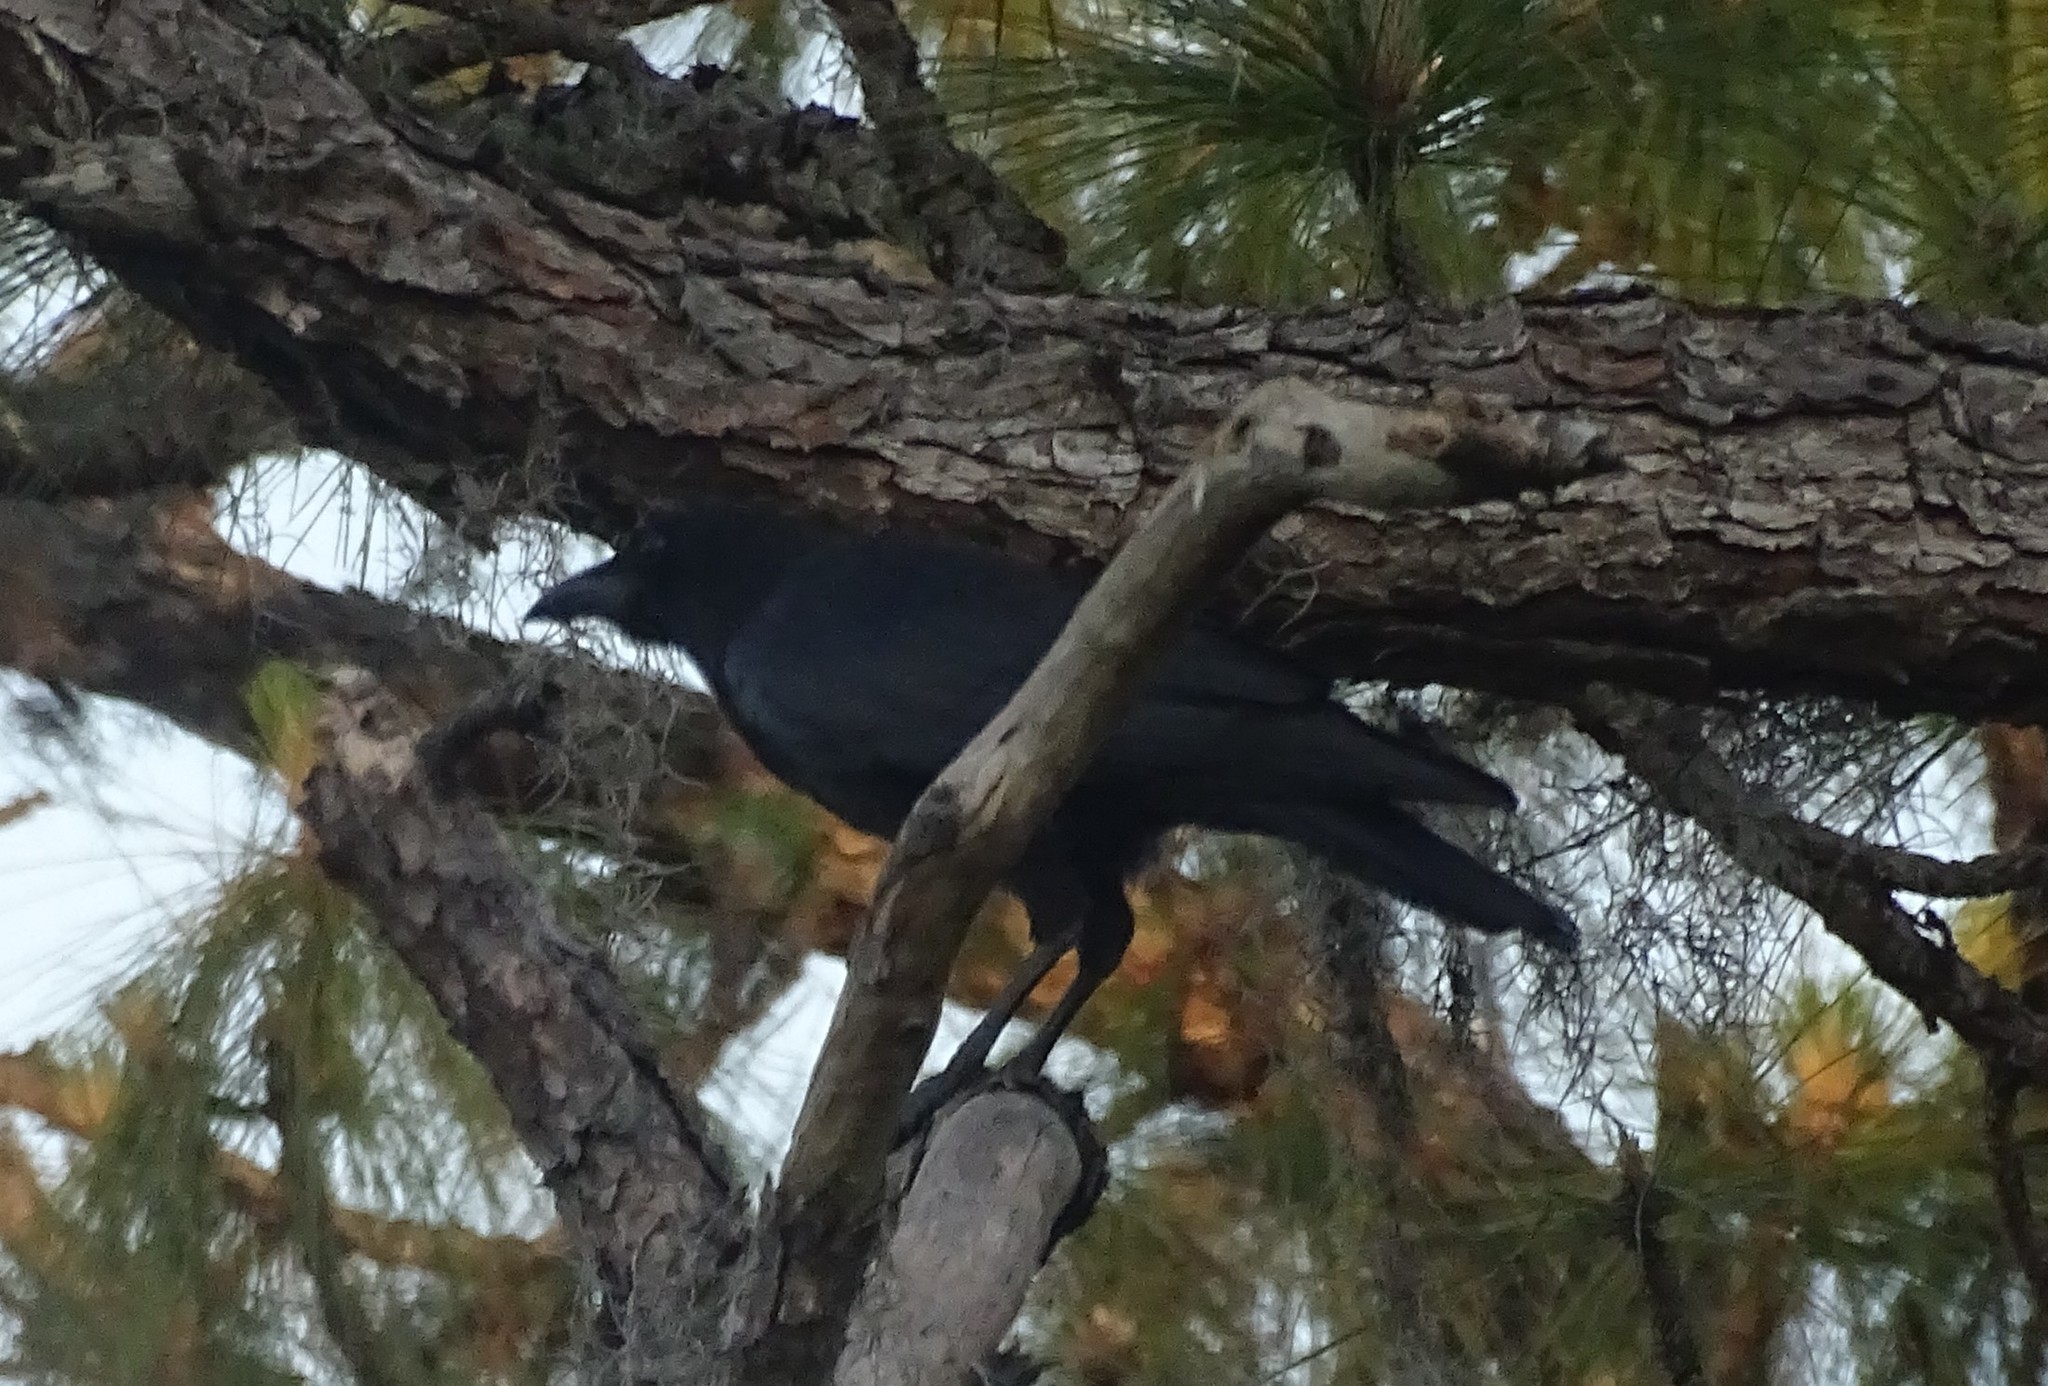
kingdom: Animalia
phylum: Chordata
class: Aves
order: Passeriformes
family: Corvidae
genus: Corvus
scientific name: Corvus
